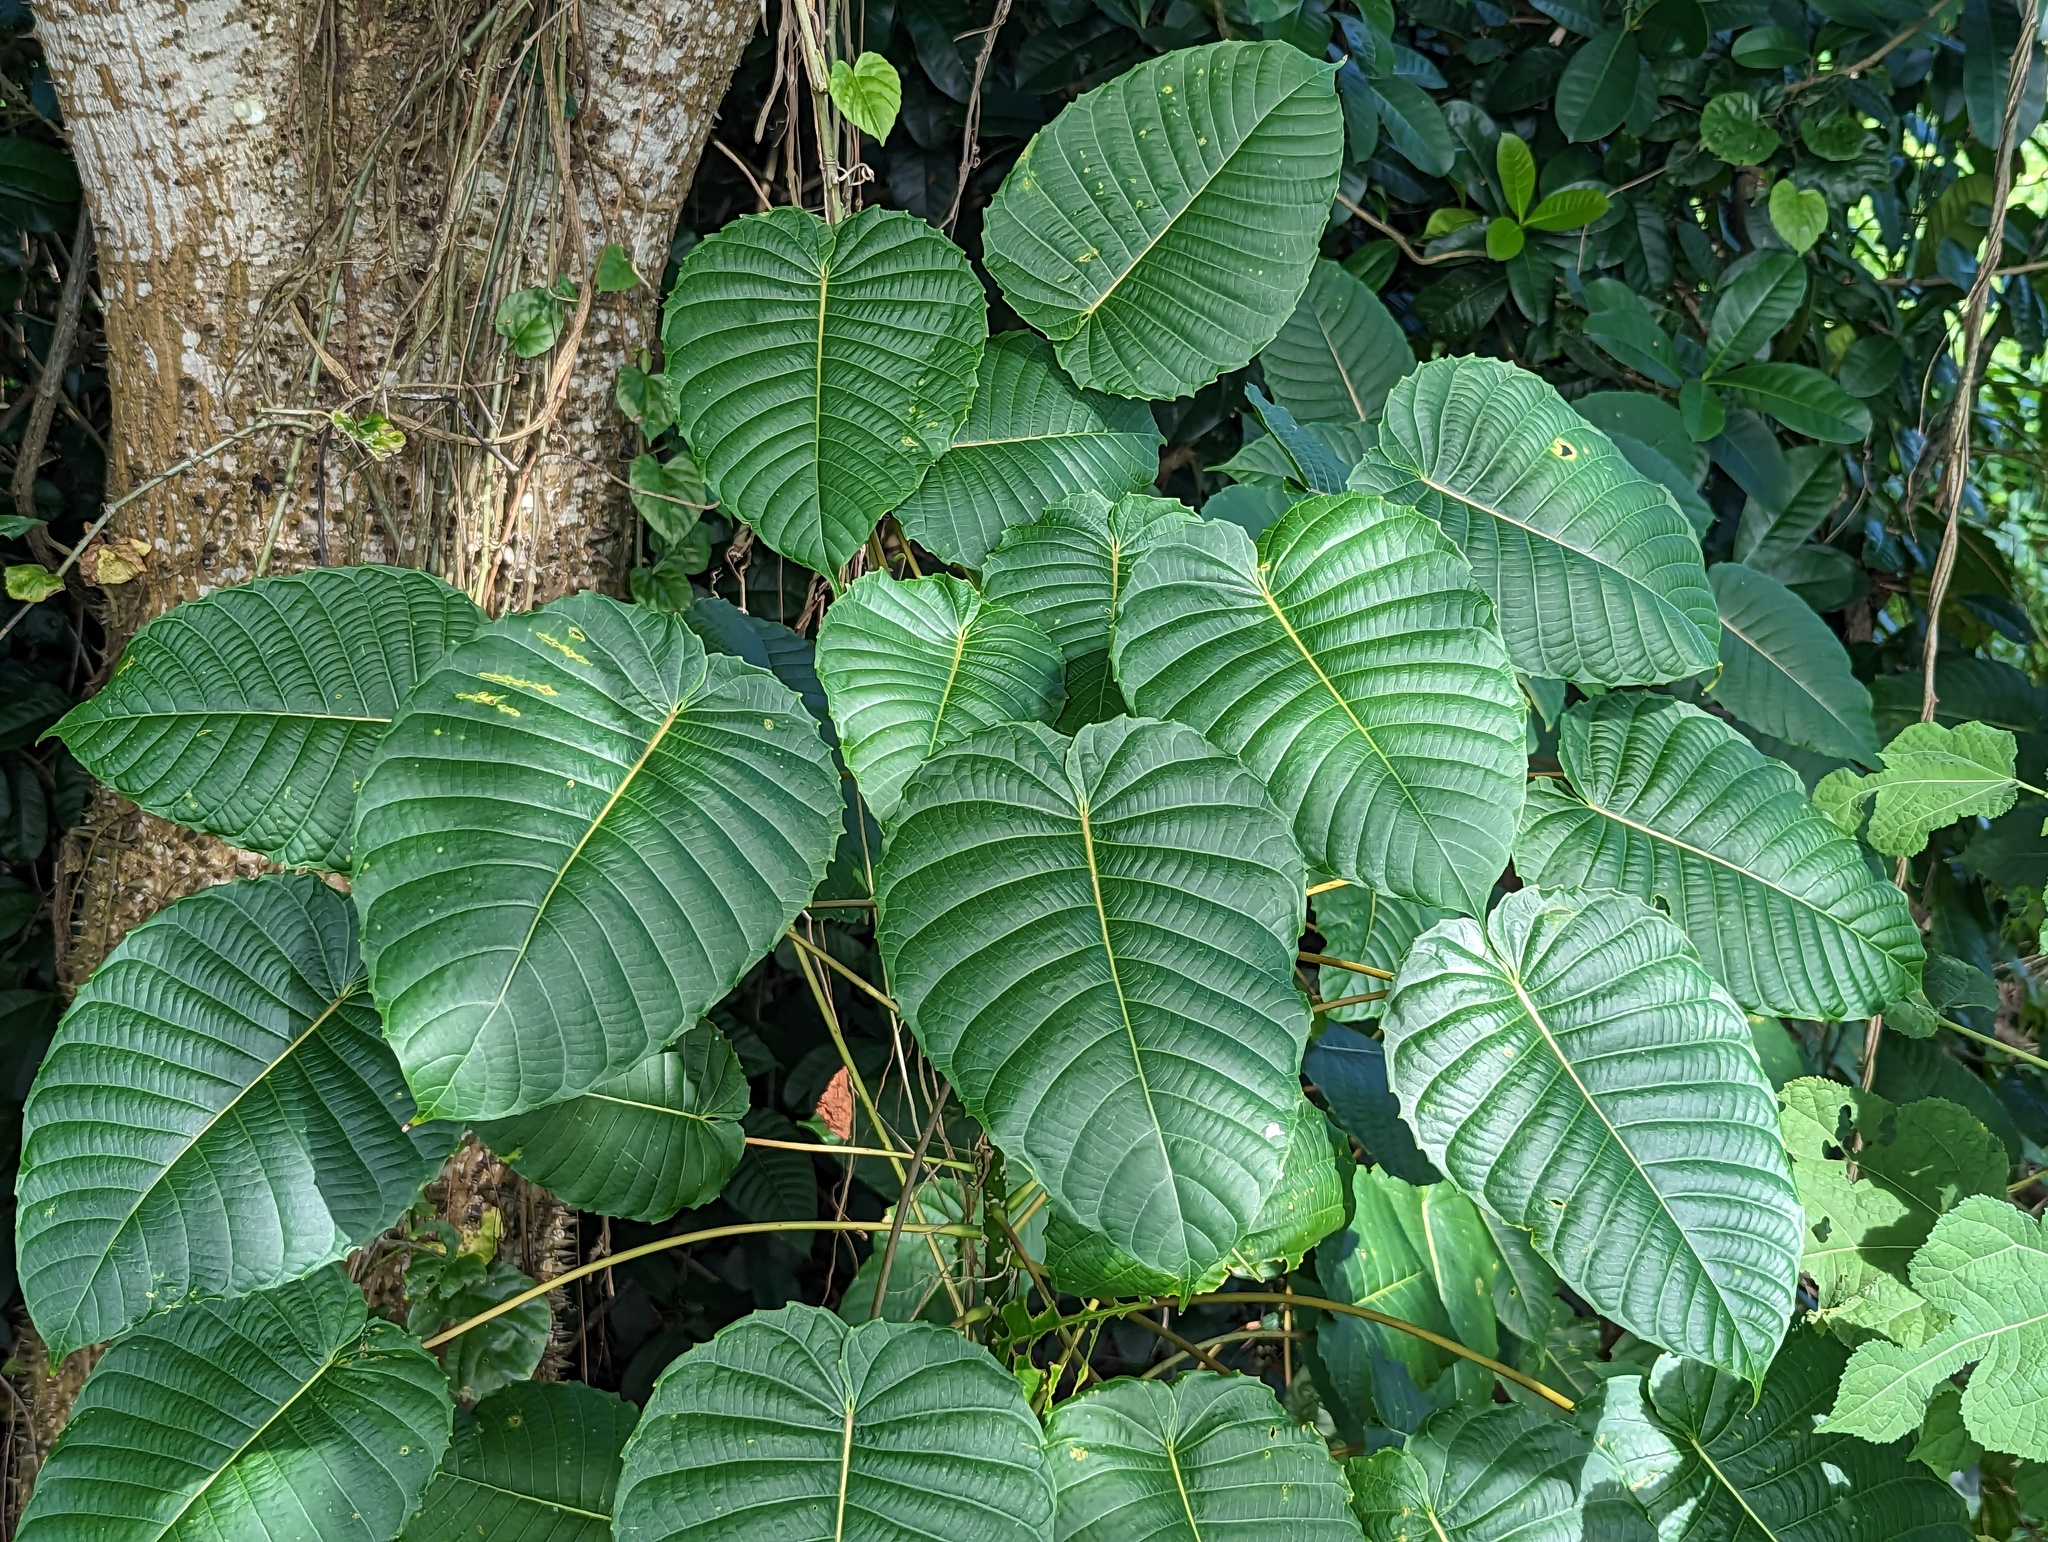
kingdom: Plantae
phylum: Tracheophyta
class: Magnoliopsida
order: Malpighiales
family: Euphorbiaceae
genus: Hura
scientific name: Hura crepitans
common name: Sandboxtree
